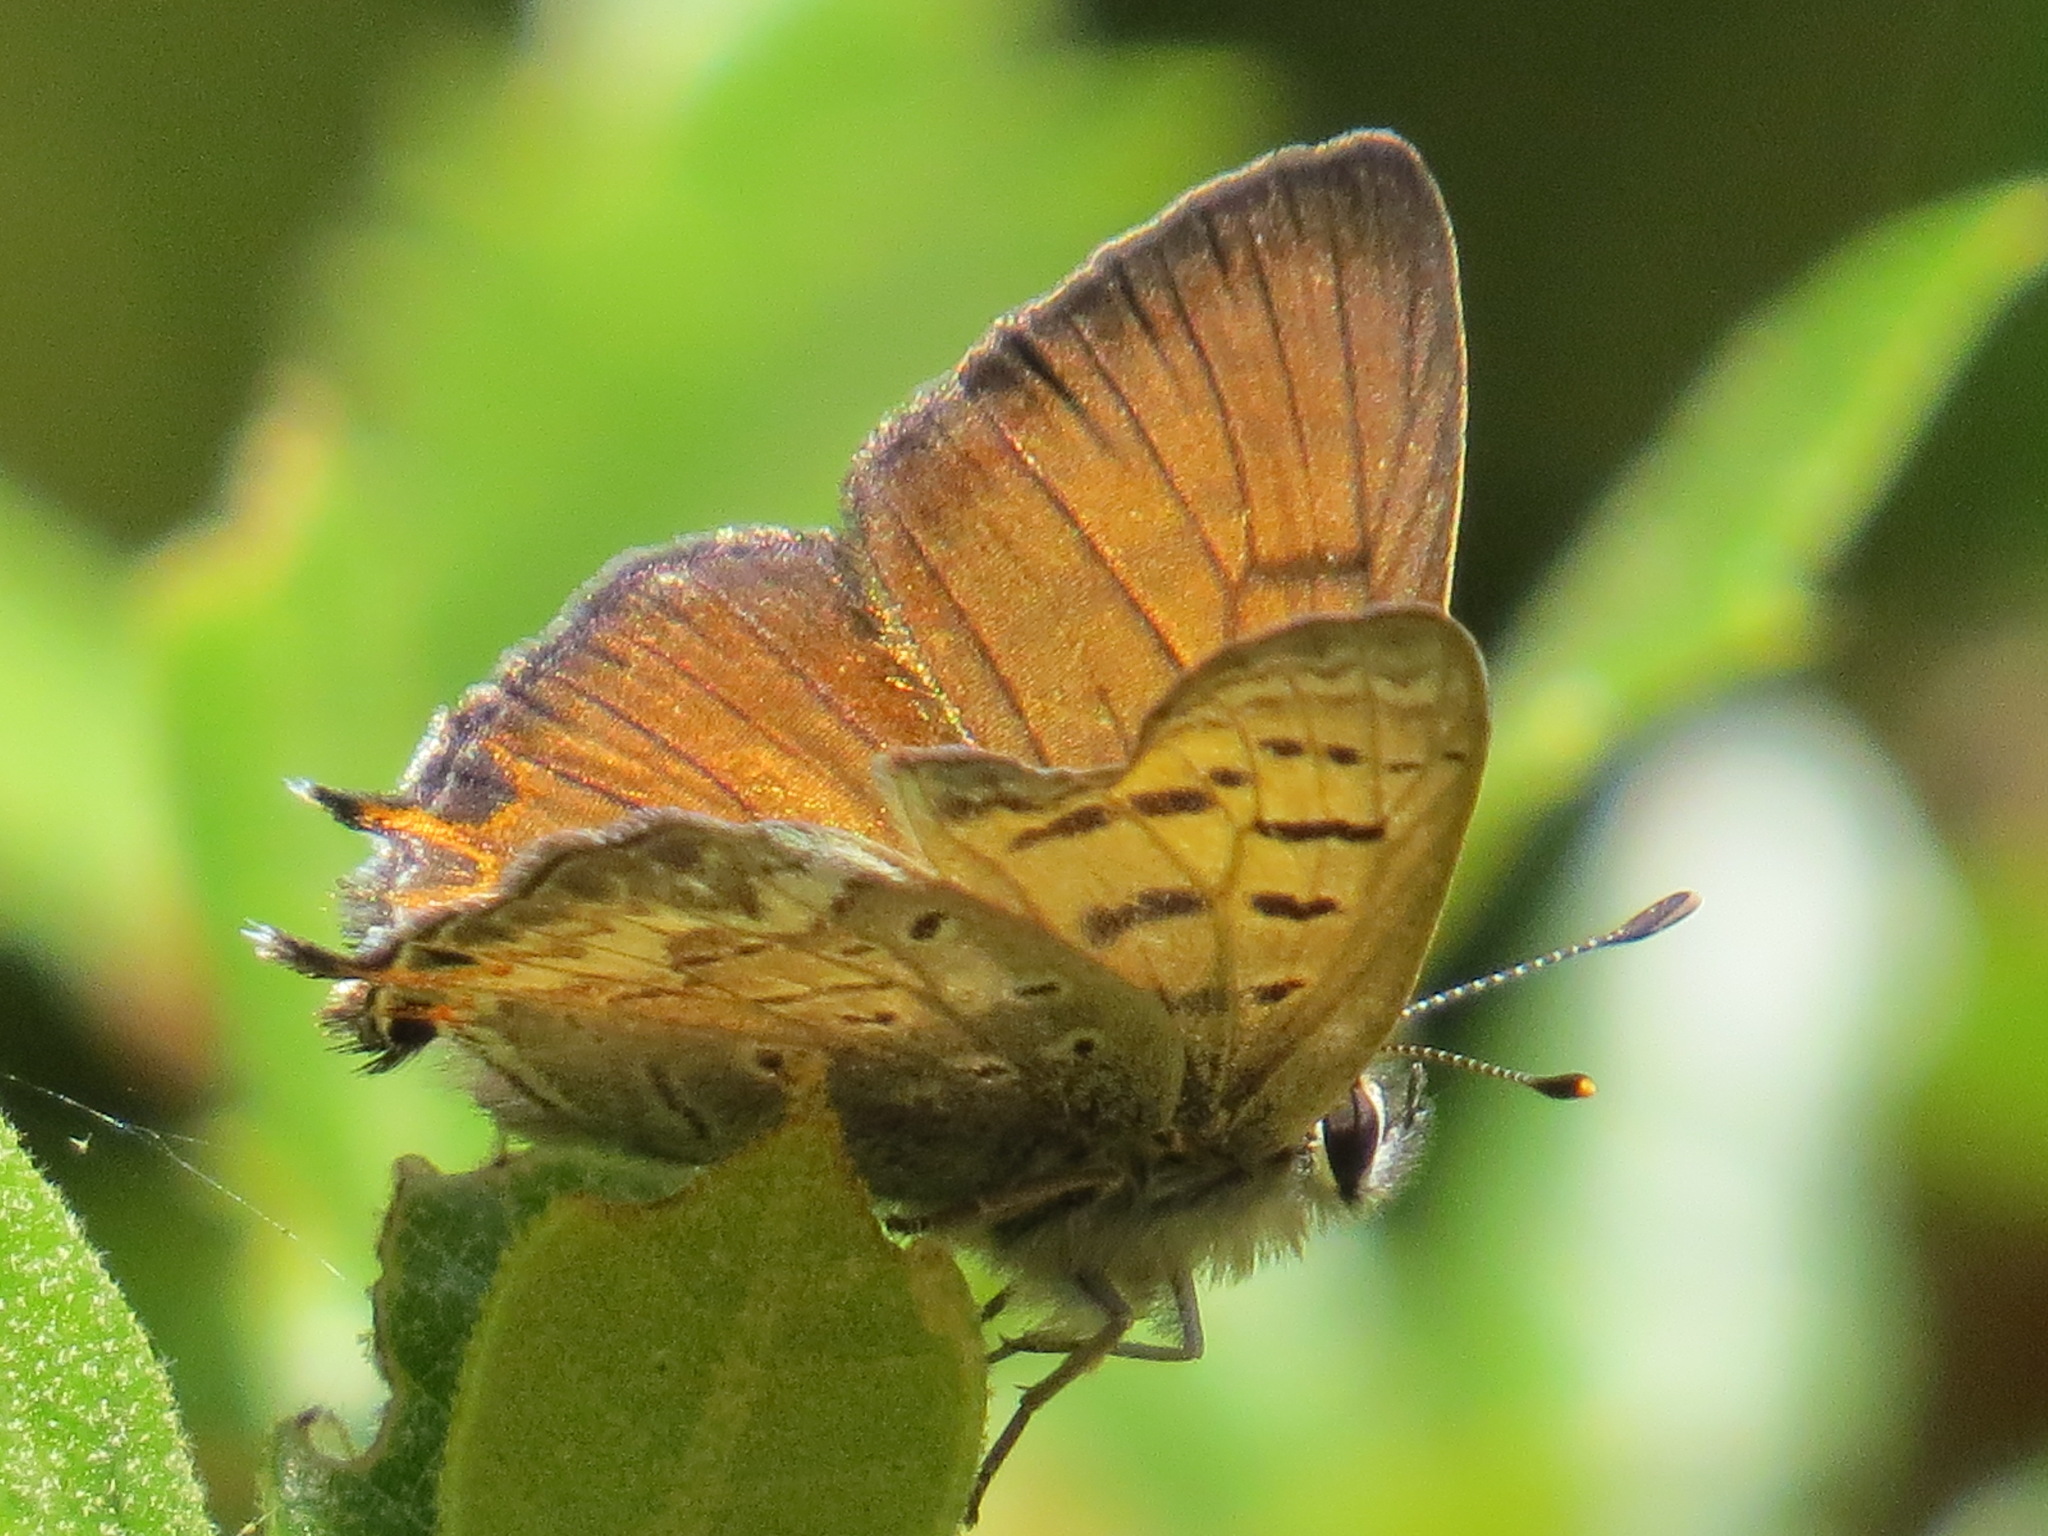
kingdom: Animalia
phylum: Arthropoda
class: Insecta
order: Lepidoptera
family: Lycaenidae
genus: Tharsalea
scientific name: Tharsalea arota
